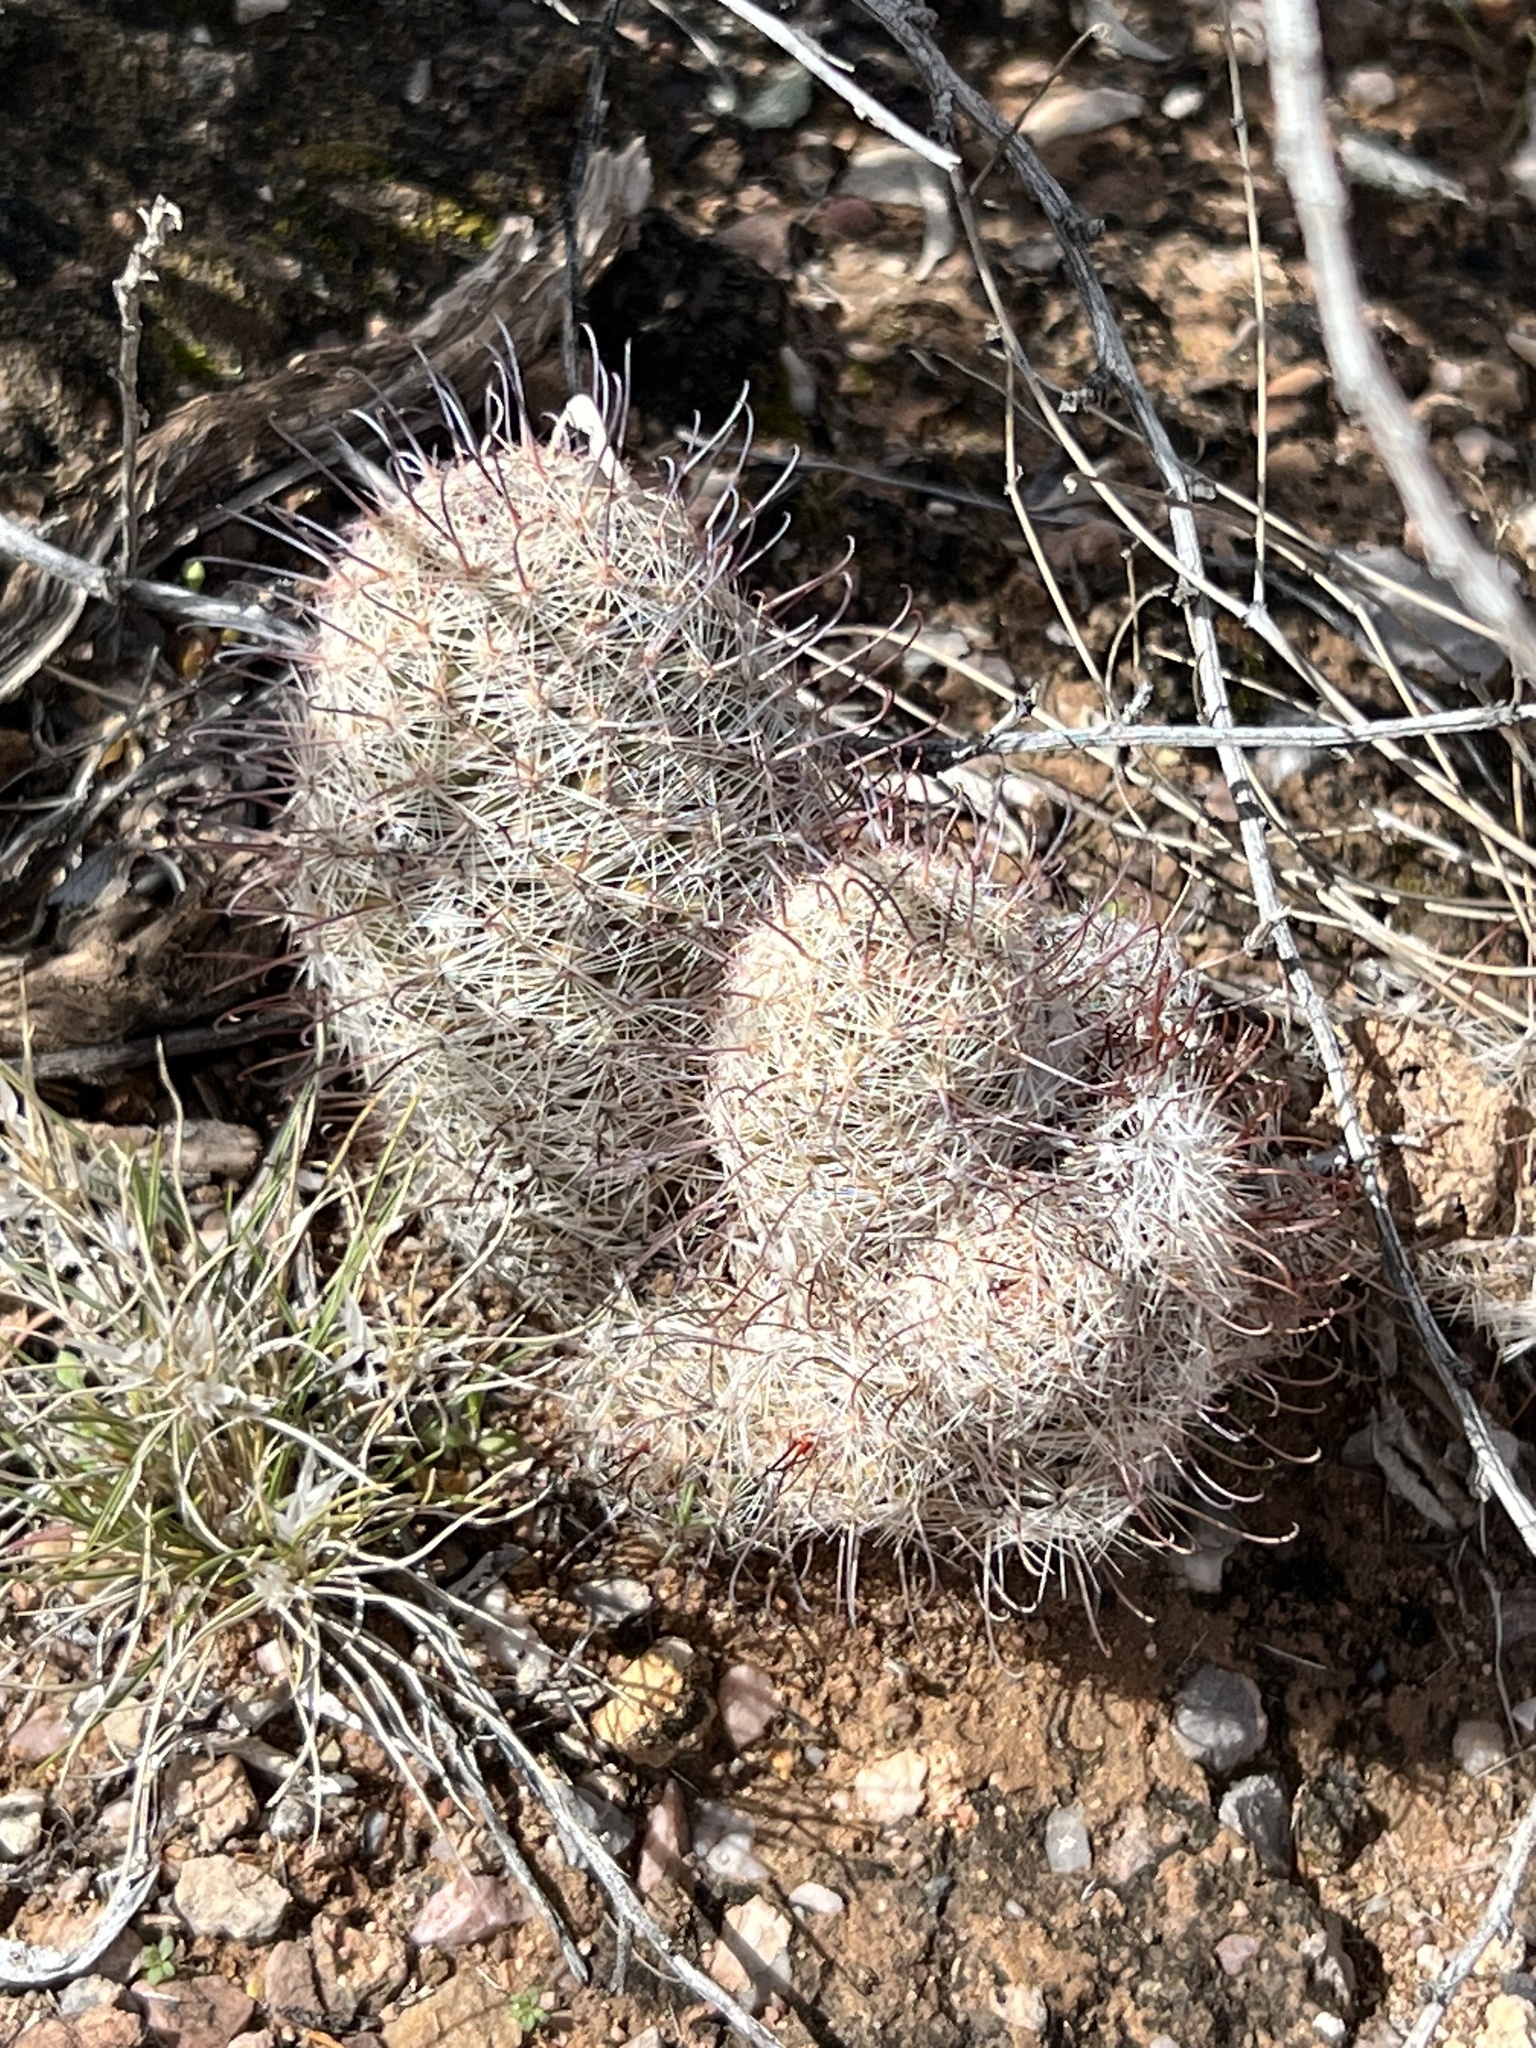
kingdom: Plantae
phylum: Tracheophyta
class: Magnoliopsida
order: Caryophyllales
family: Cactaceae
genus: Cochemiea
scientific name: Cochemiea grahamii
